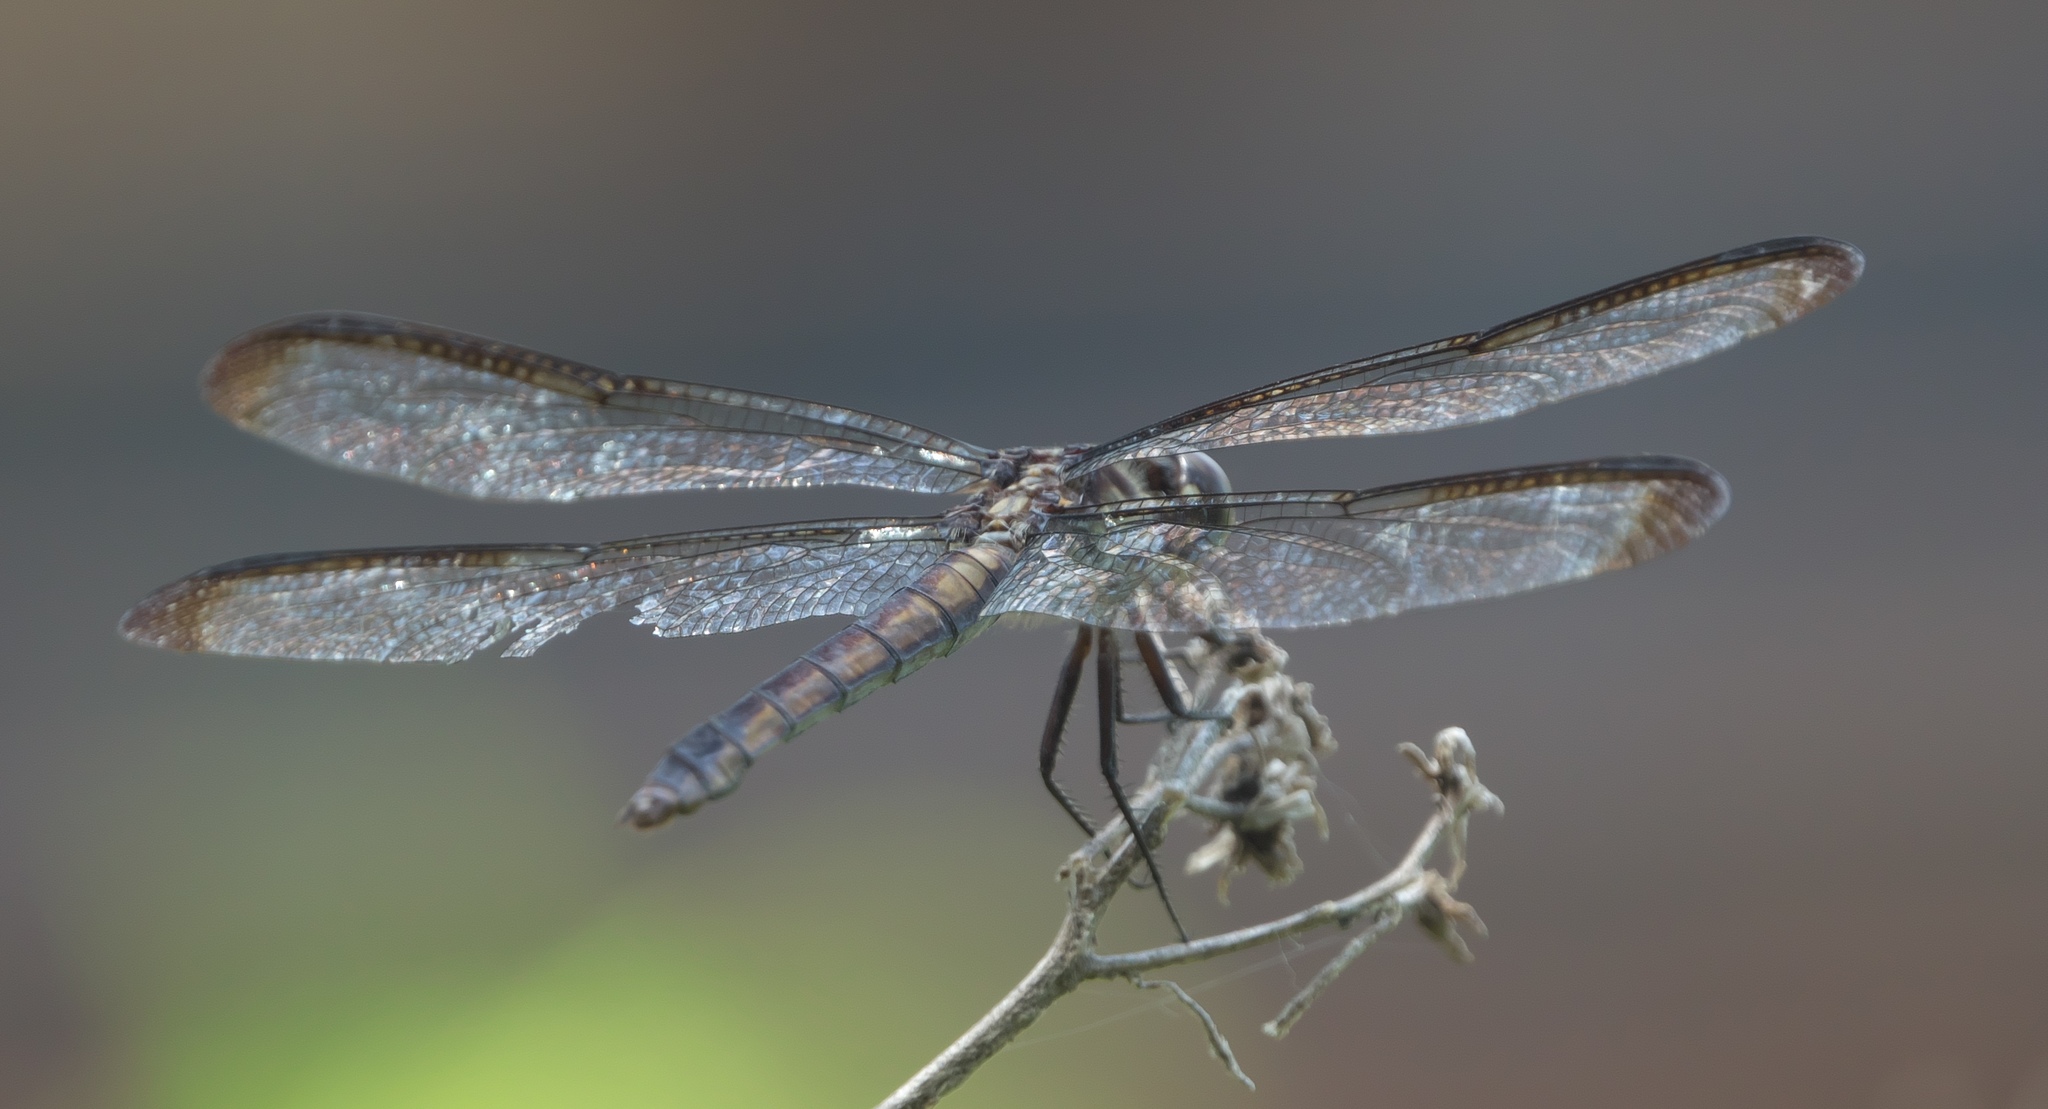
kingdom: Animalia
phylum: Arthropoda
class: Insecta
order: Odonata
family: Libellulidae
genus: Libellula
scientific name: Libellula incesta
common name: Slaty skimmer
